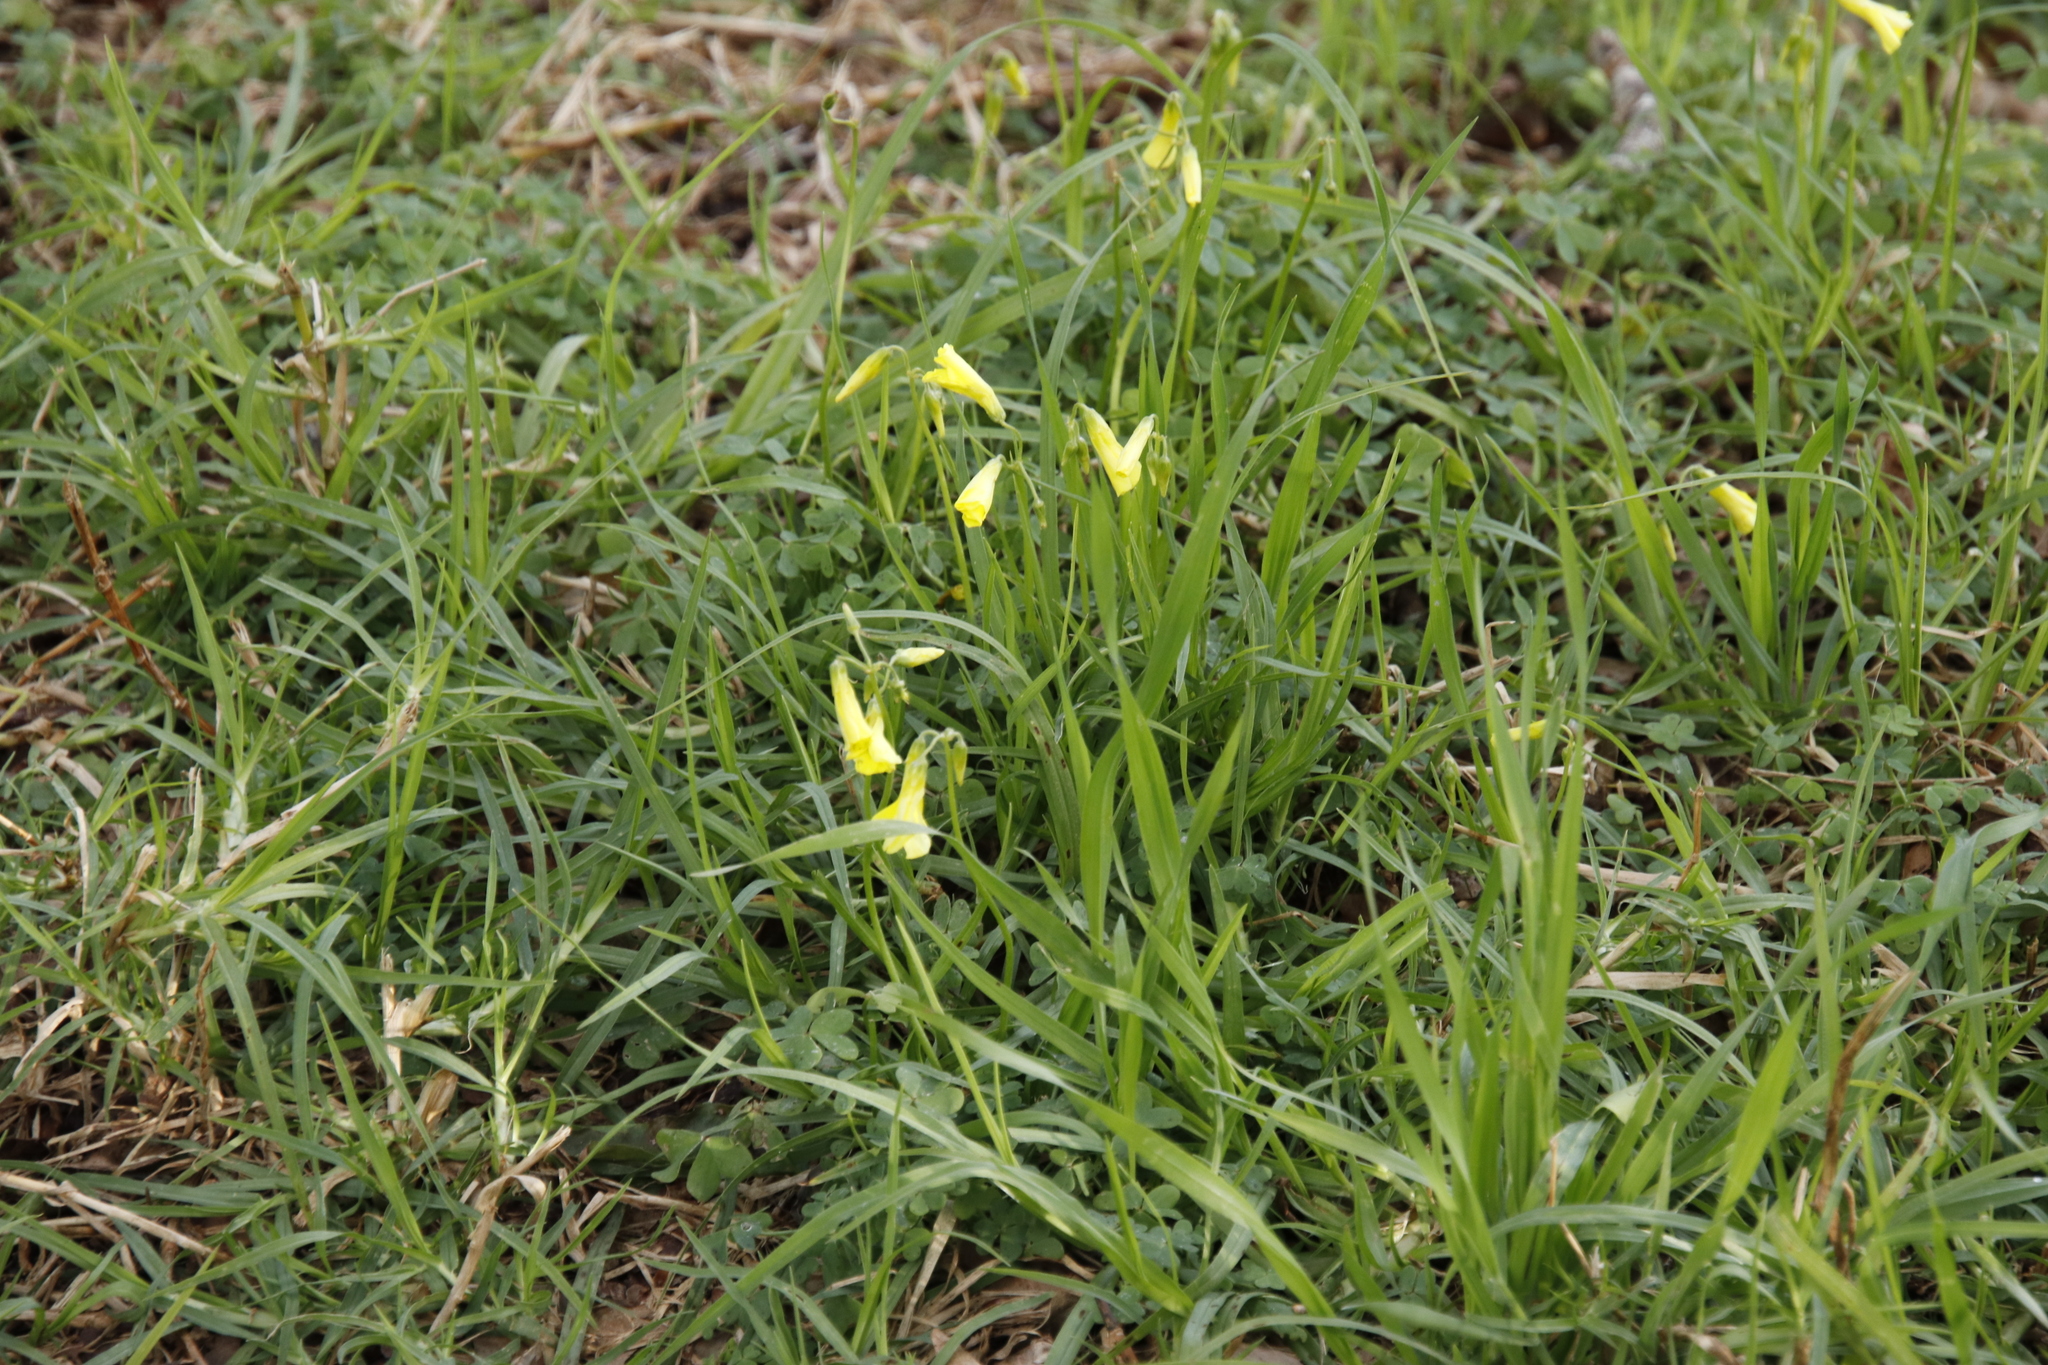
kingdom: Plantae
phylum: Tracheophyta
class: Magnoliopsida
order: Oxalidales
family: Oxalidaceae
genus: Oxalis
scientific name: Oxalis pes-caprae
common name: Bermuda-buttercup
